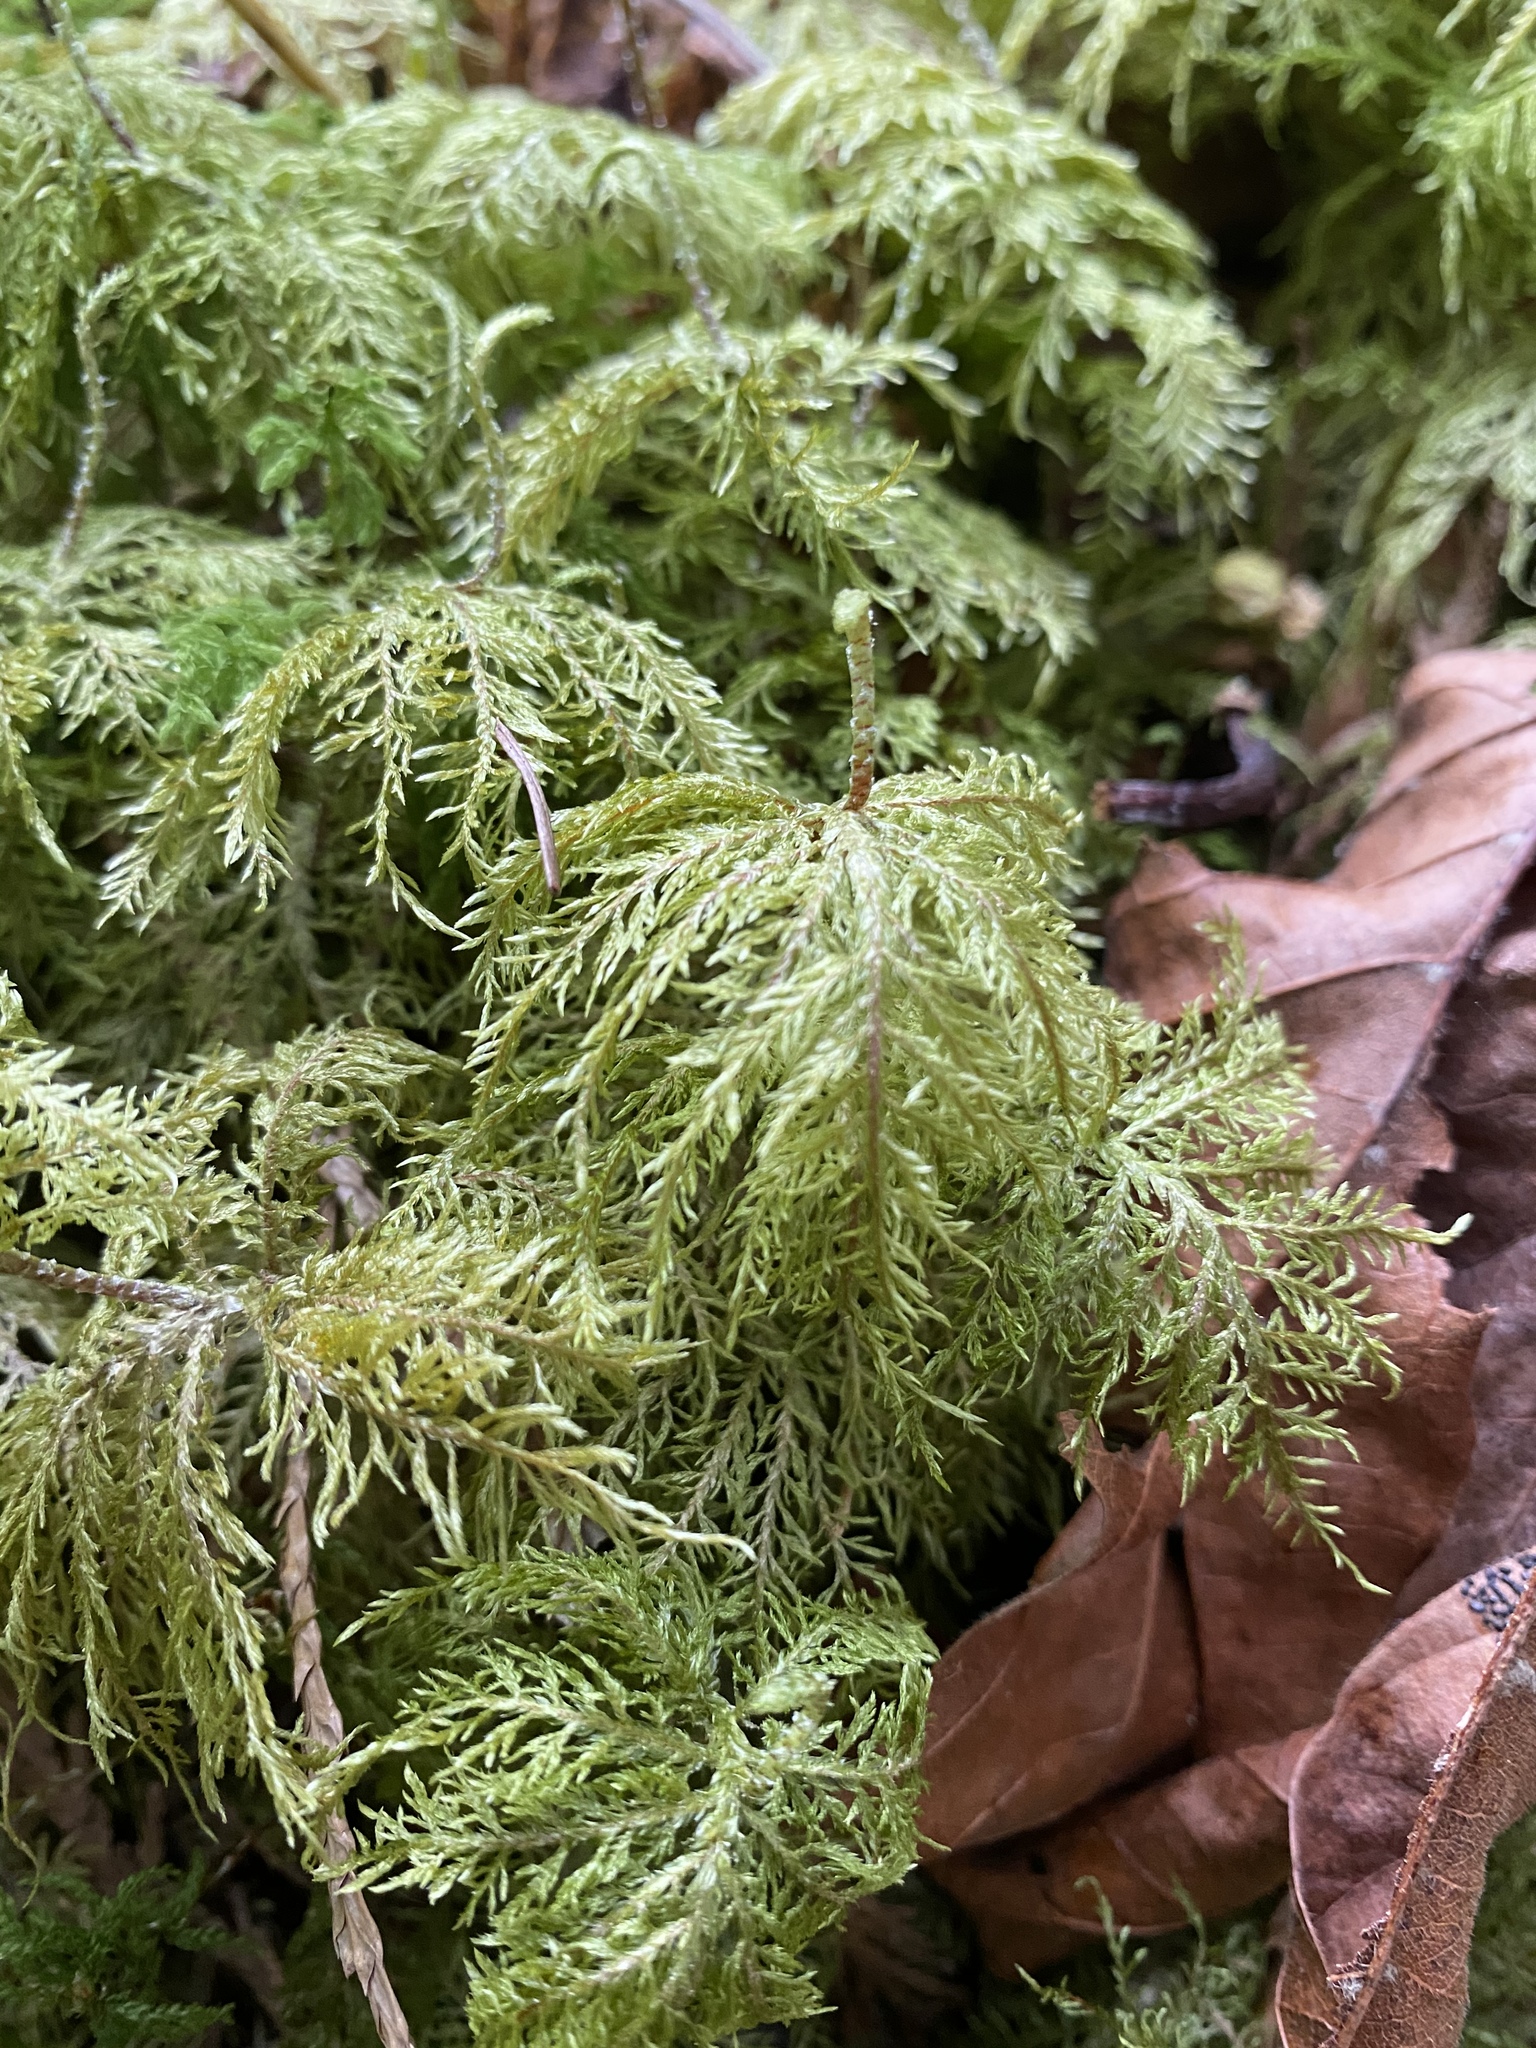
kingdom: Plantae
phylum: Bryophyta
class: Bryopsida
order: Hypnales
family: Hylocomiaceae
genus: Hylocomium
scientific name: Hylocomium splendens
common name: Stairstep moss
